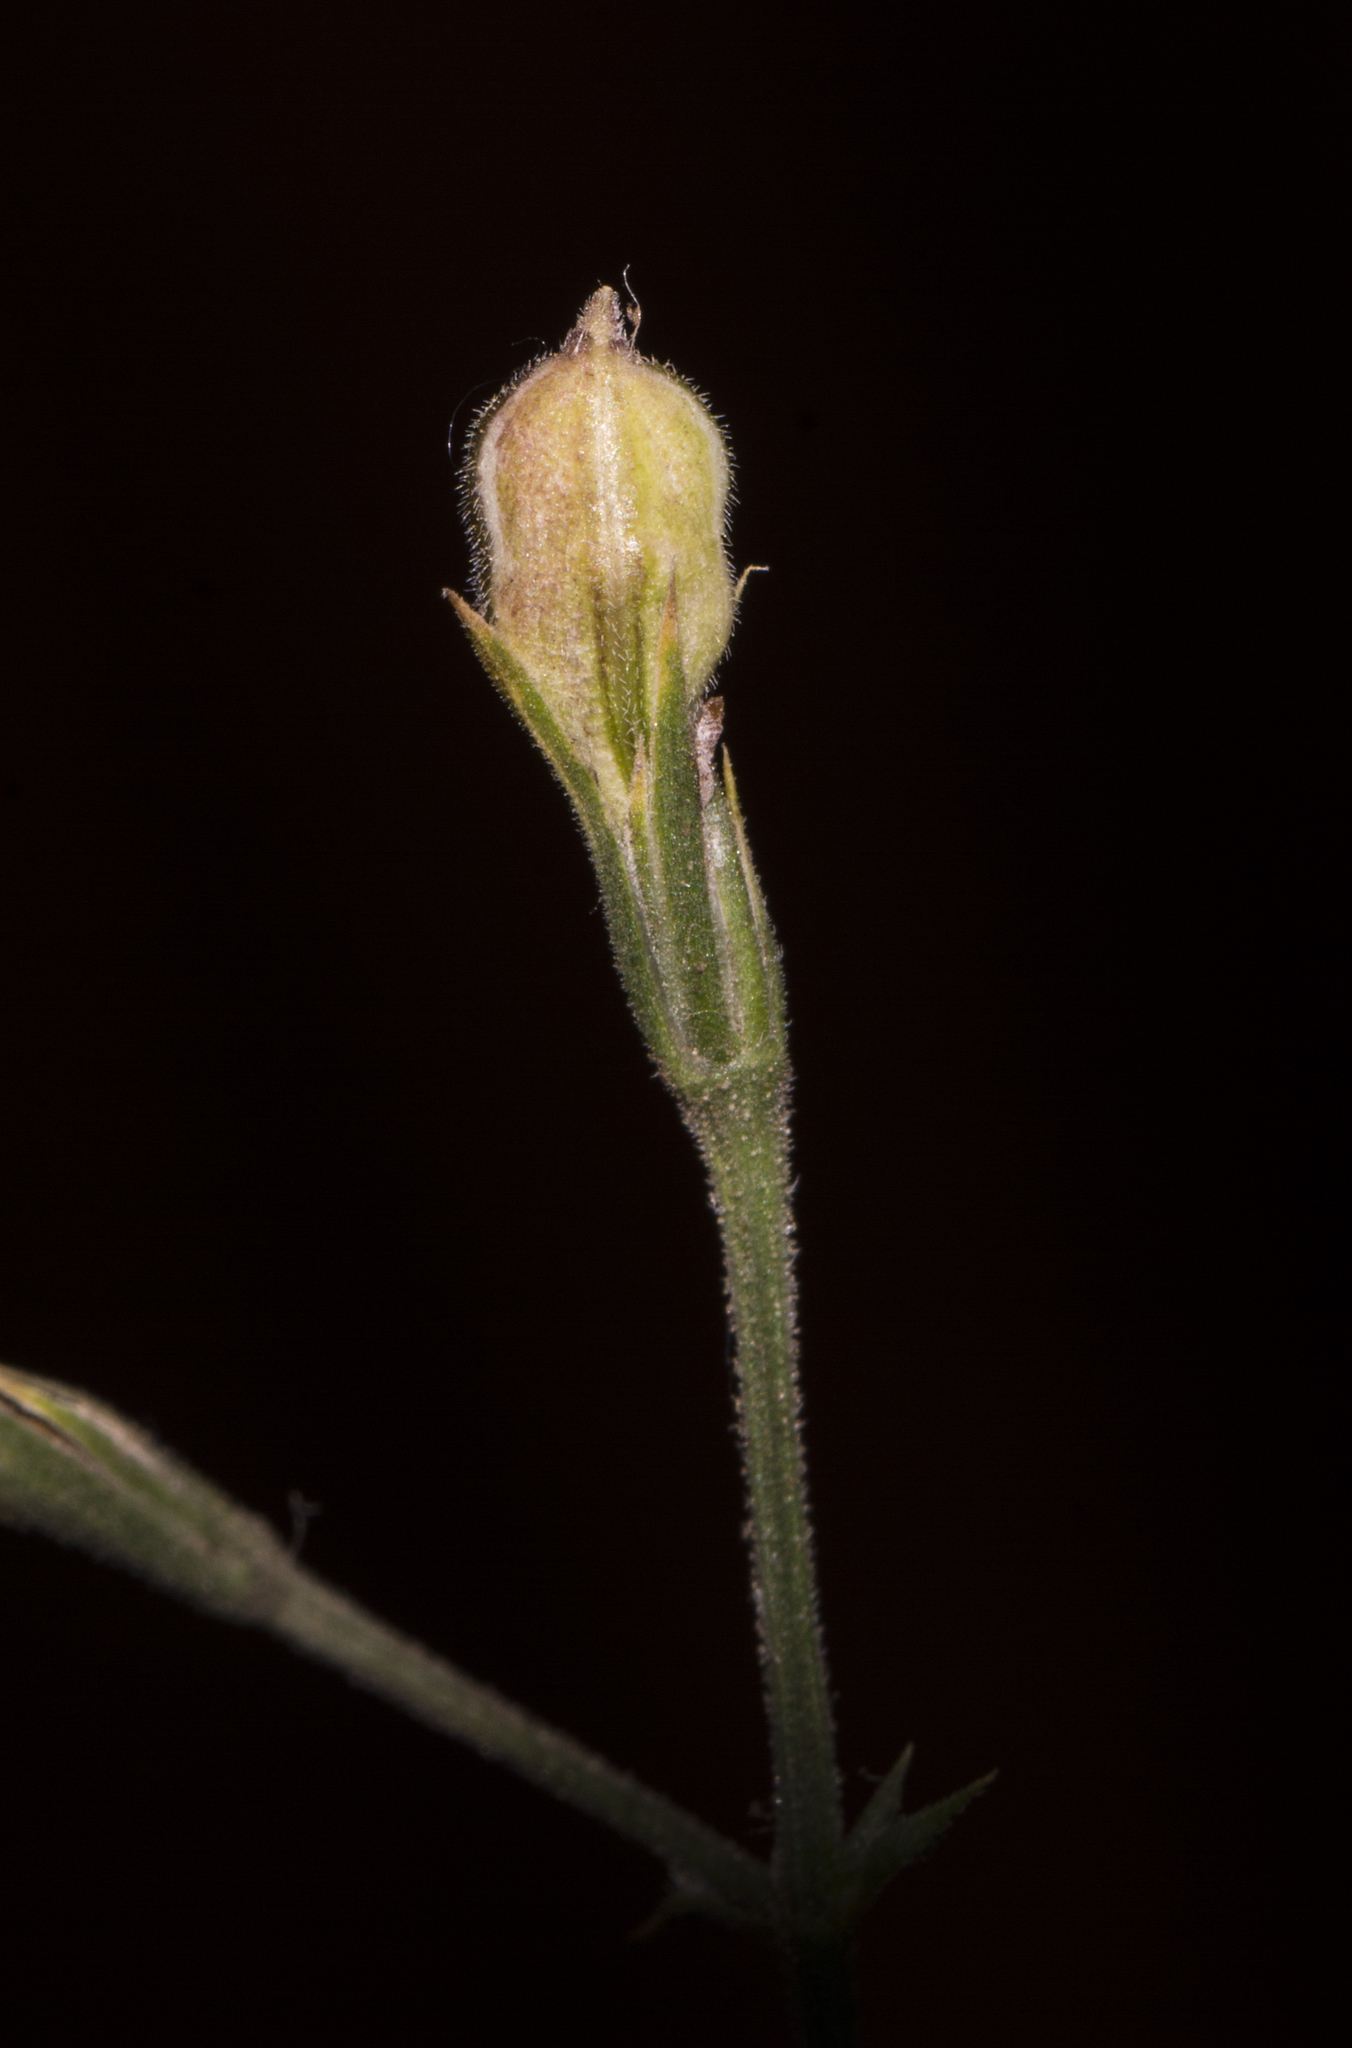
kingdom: Plantae
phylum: Tracheophyta
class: Magnoliopsida
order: Lamiales
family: Acanthaceae
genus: Dicliptera
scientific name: Dicliptera paniculata
